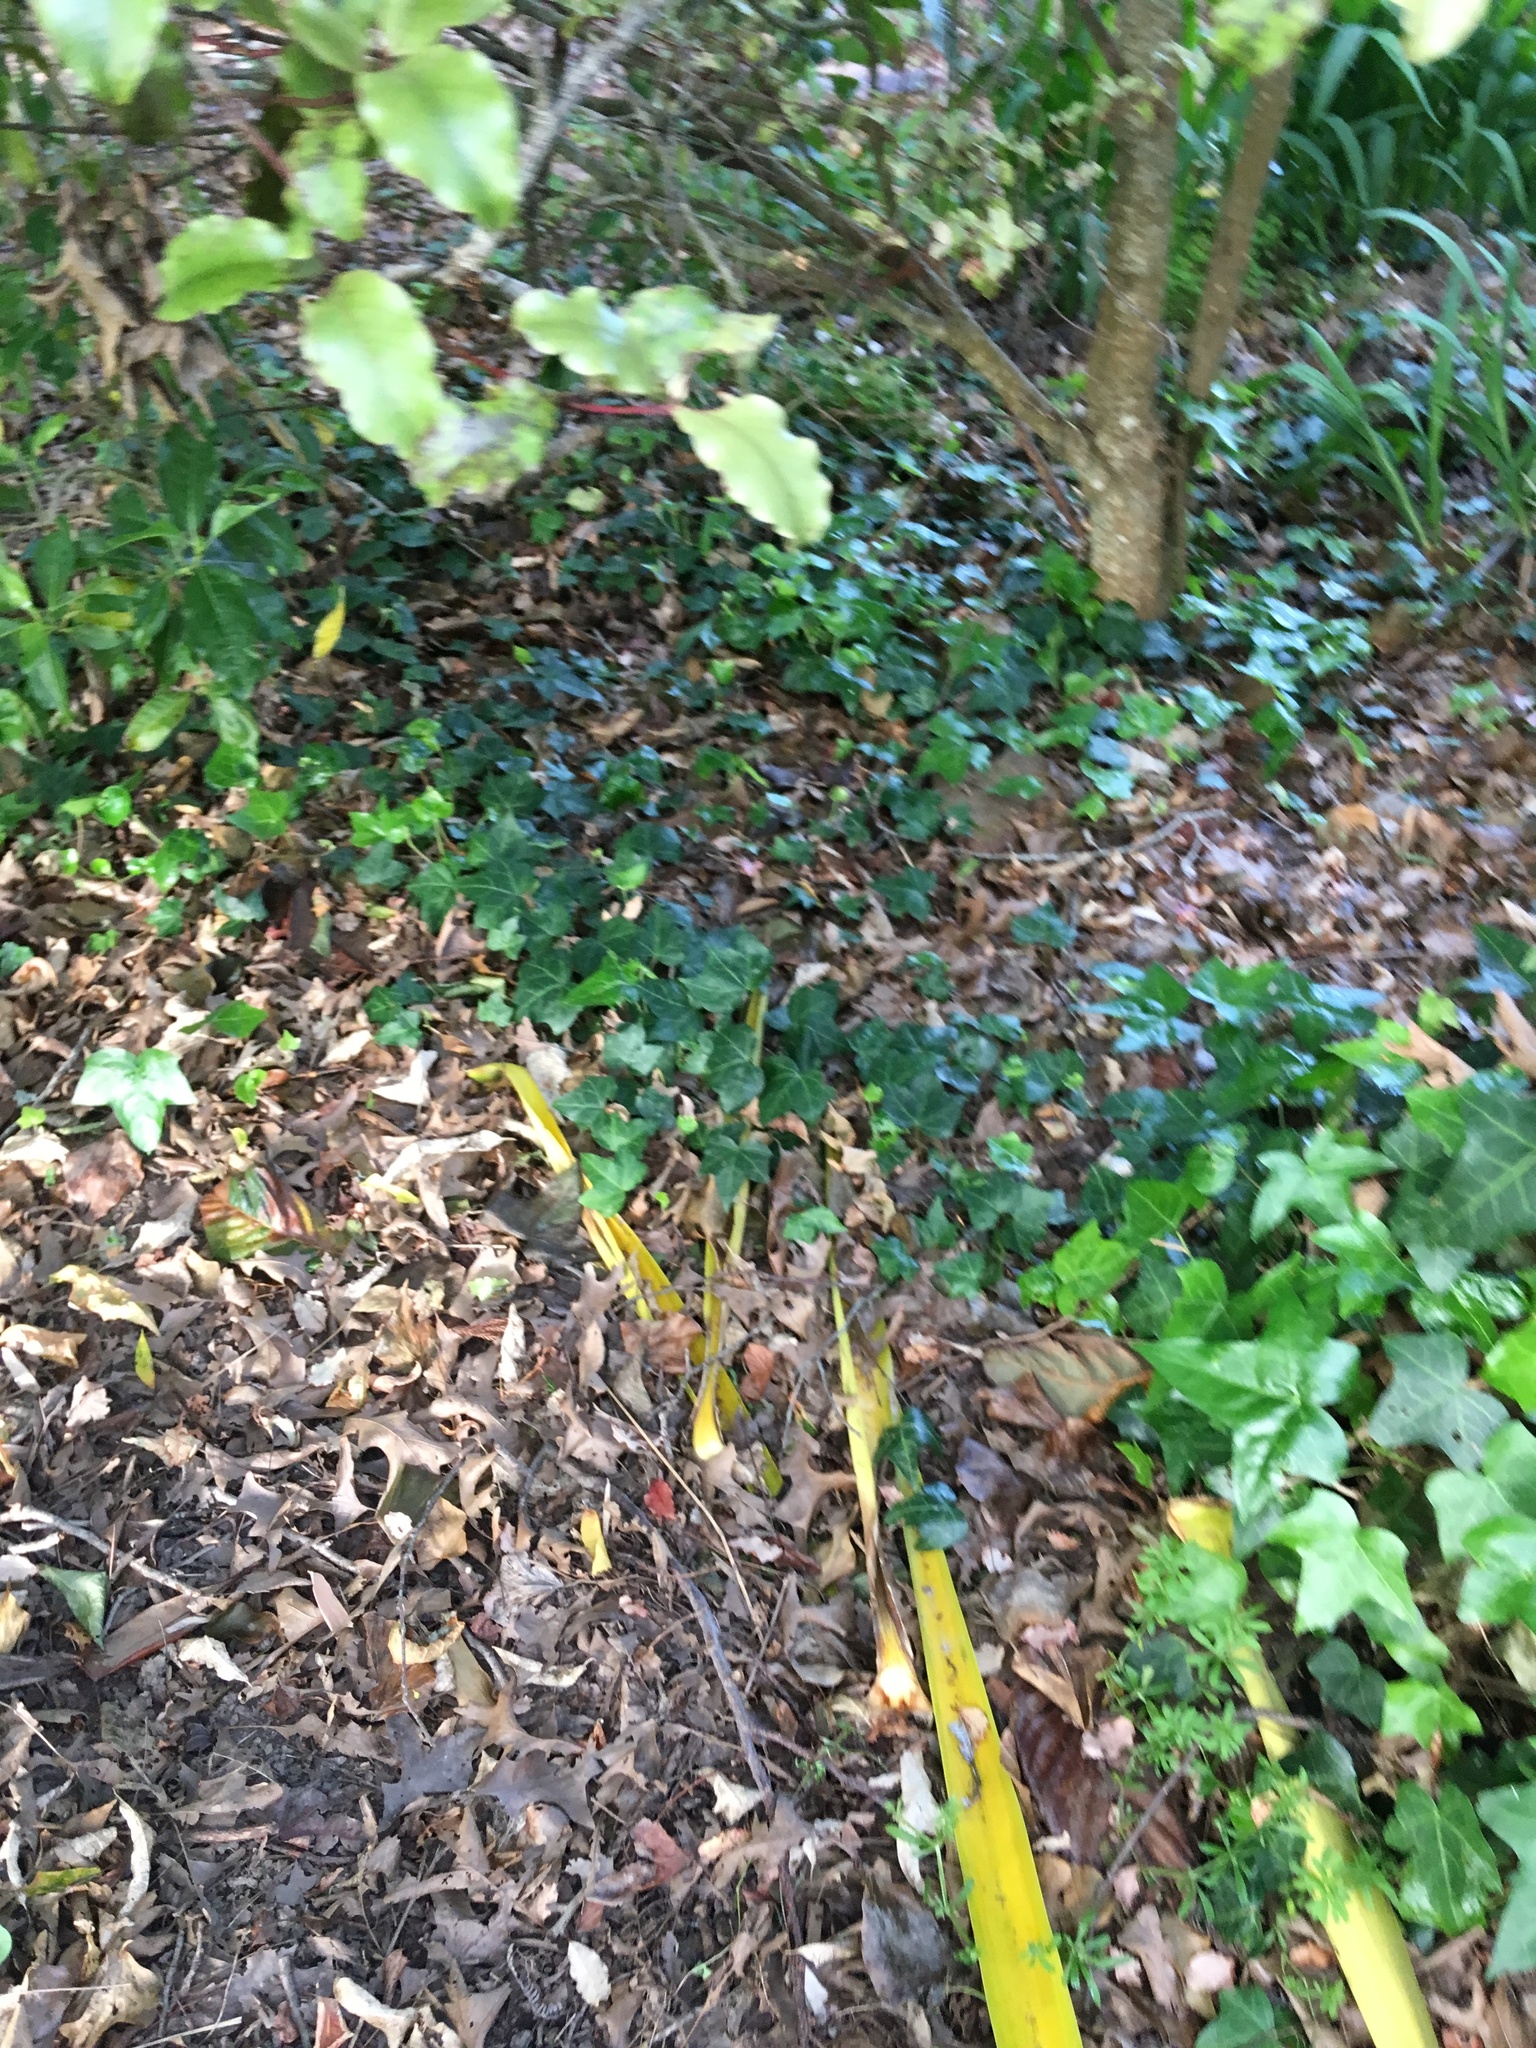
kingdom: Plantae
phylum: Tracheophyta
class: Magnoliopsida
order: Apiales
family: Araliaceae
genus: Hedera
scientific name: Hedera helix
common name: Ivy
